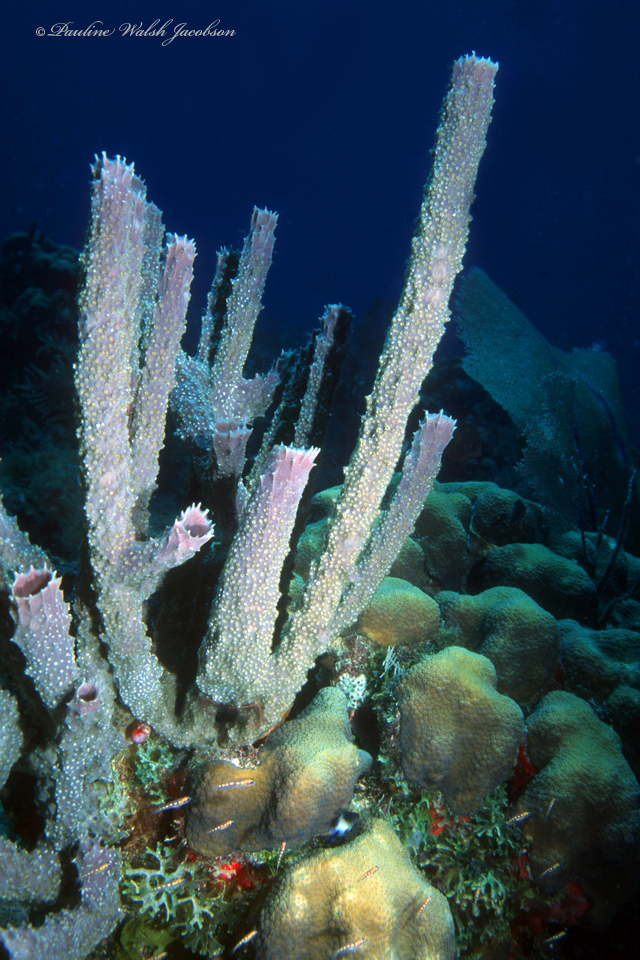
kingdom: Animalia
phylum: Porifera
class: Demospongiae
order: Haplosclerida
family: Callyspongiidae
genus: Callyspongia
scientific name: Callyspongia aculeata
